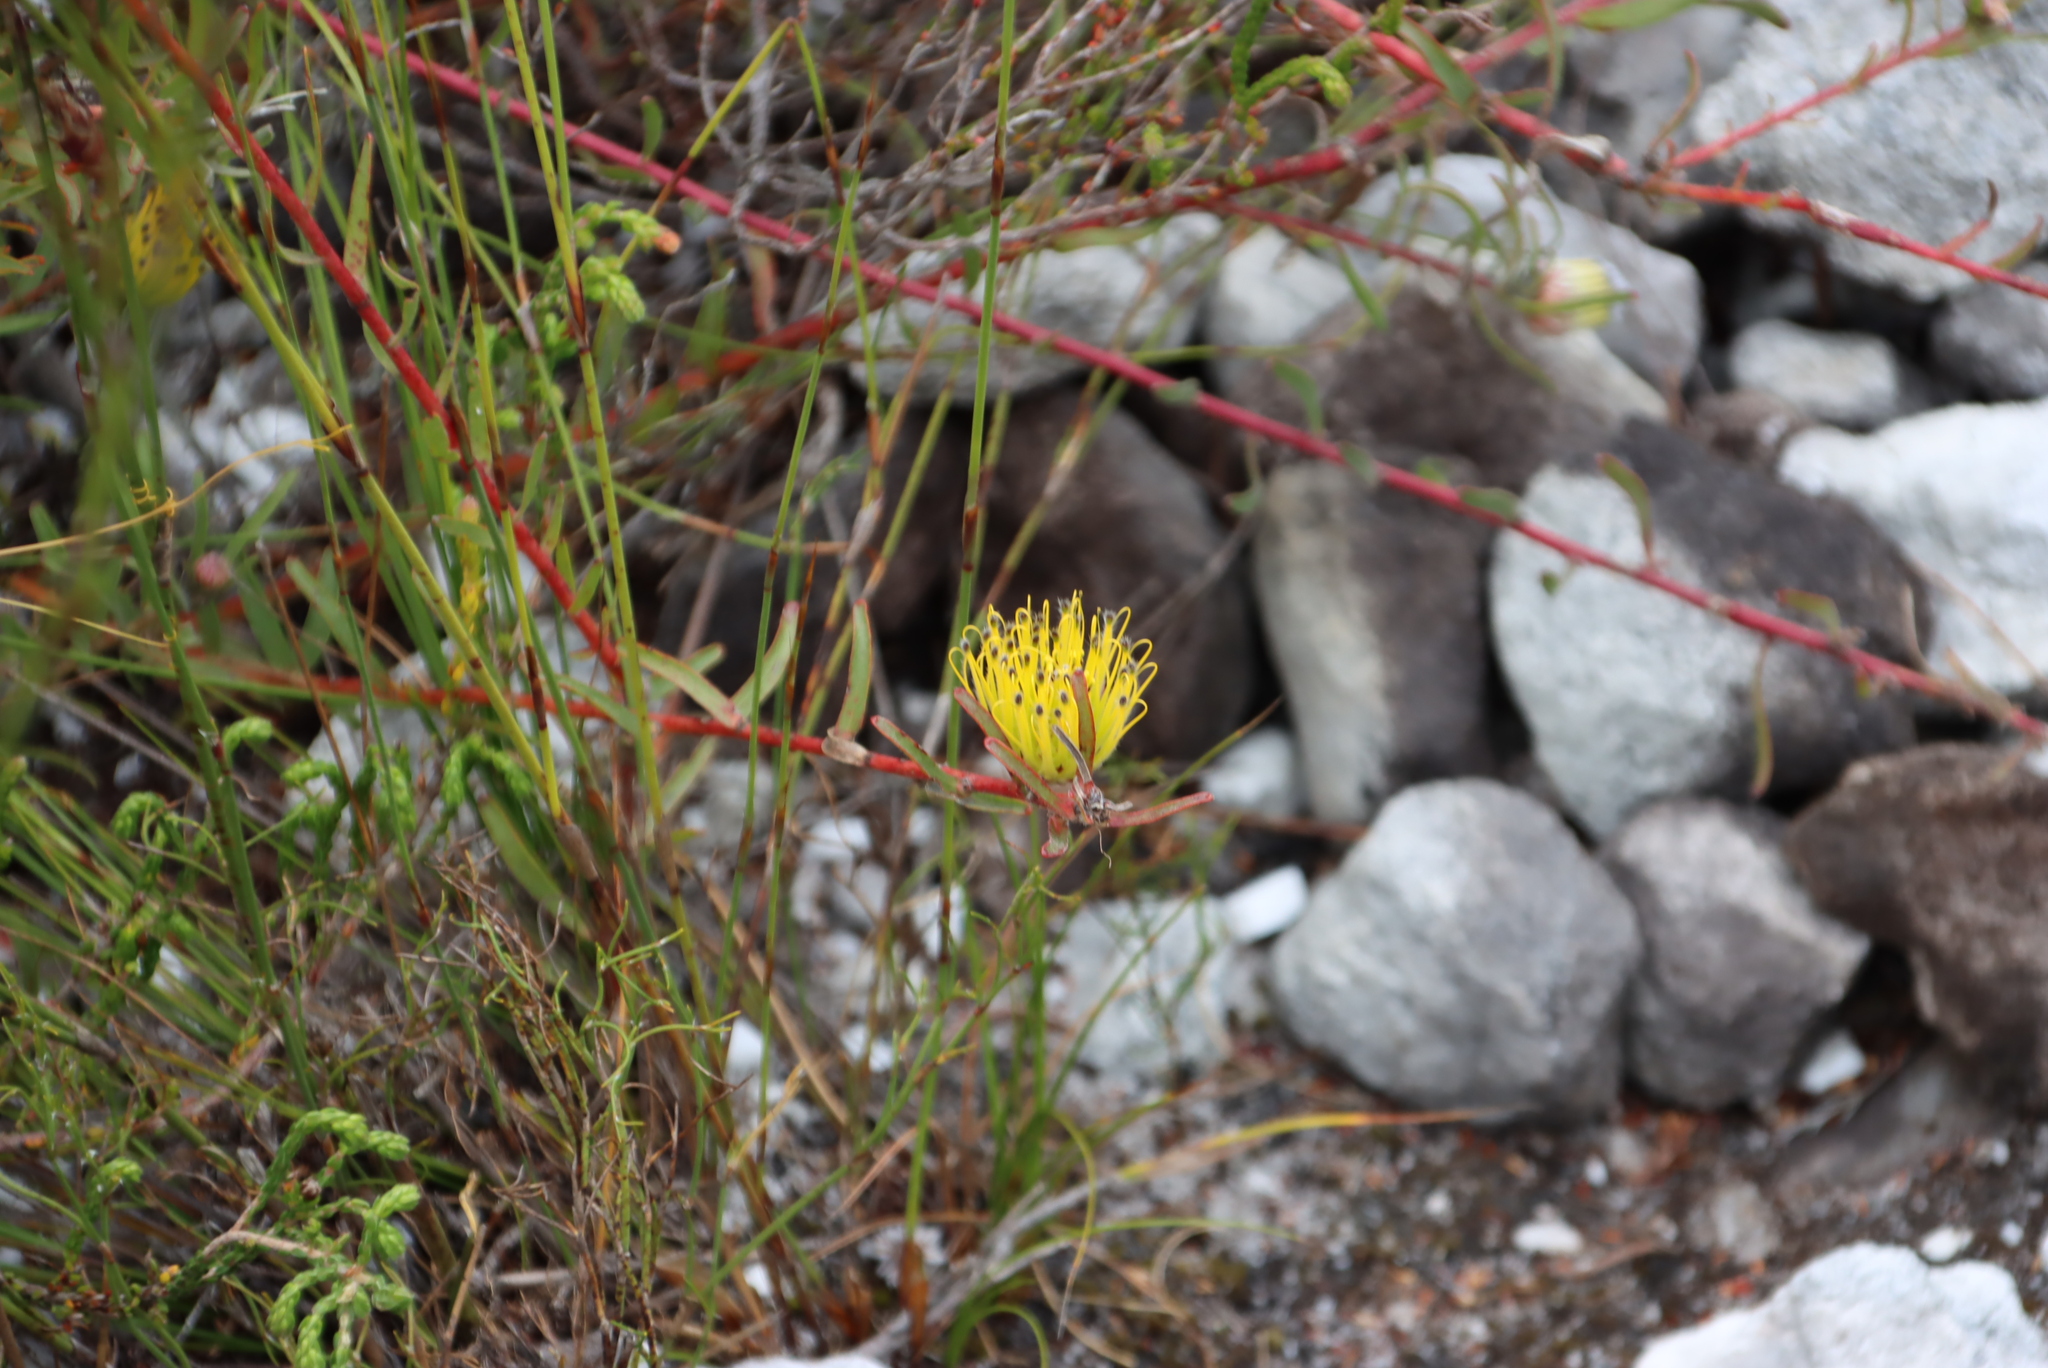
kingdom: Plantae
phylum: Tracheophyta
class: Magnoliopsida
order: Proteales
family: Proteaceae
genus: Leucospermum
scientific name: Leucospermum gracile
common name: Hermanus pincushion
